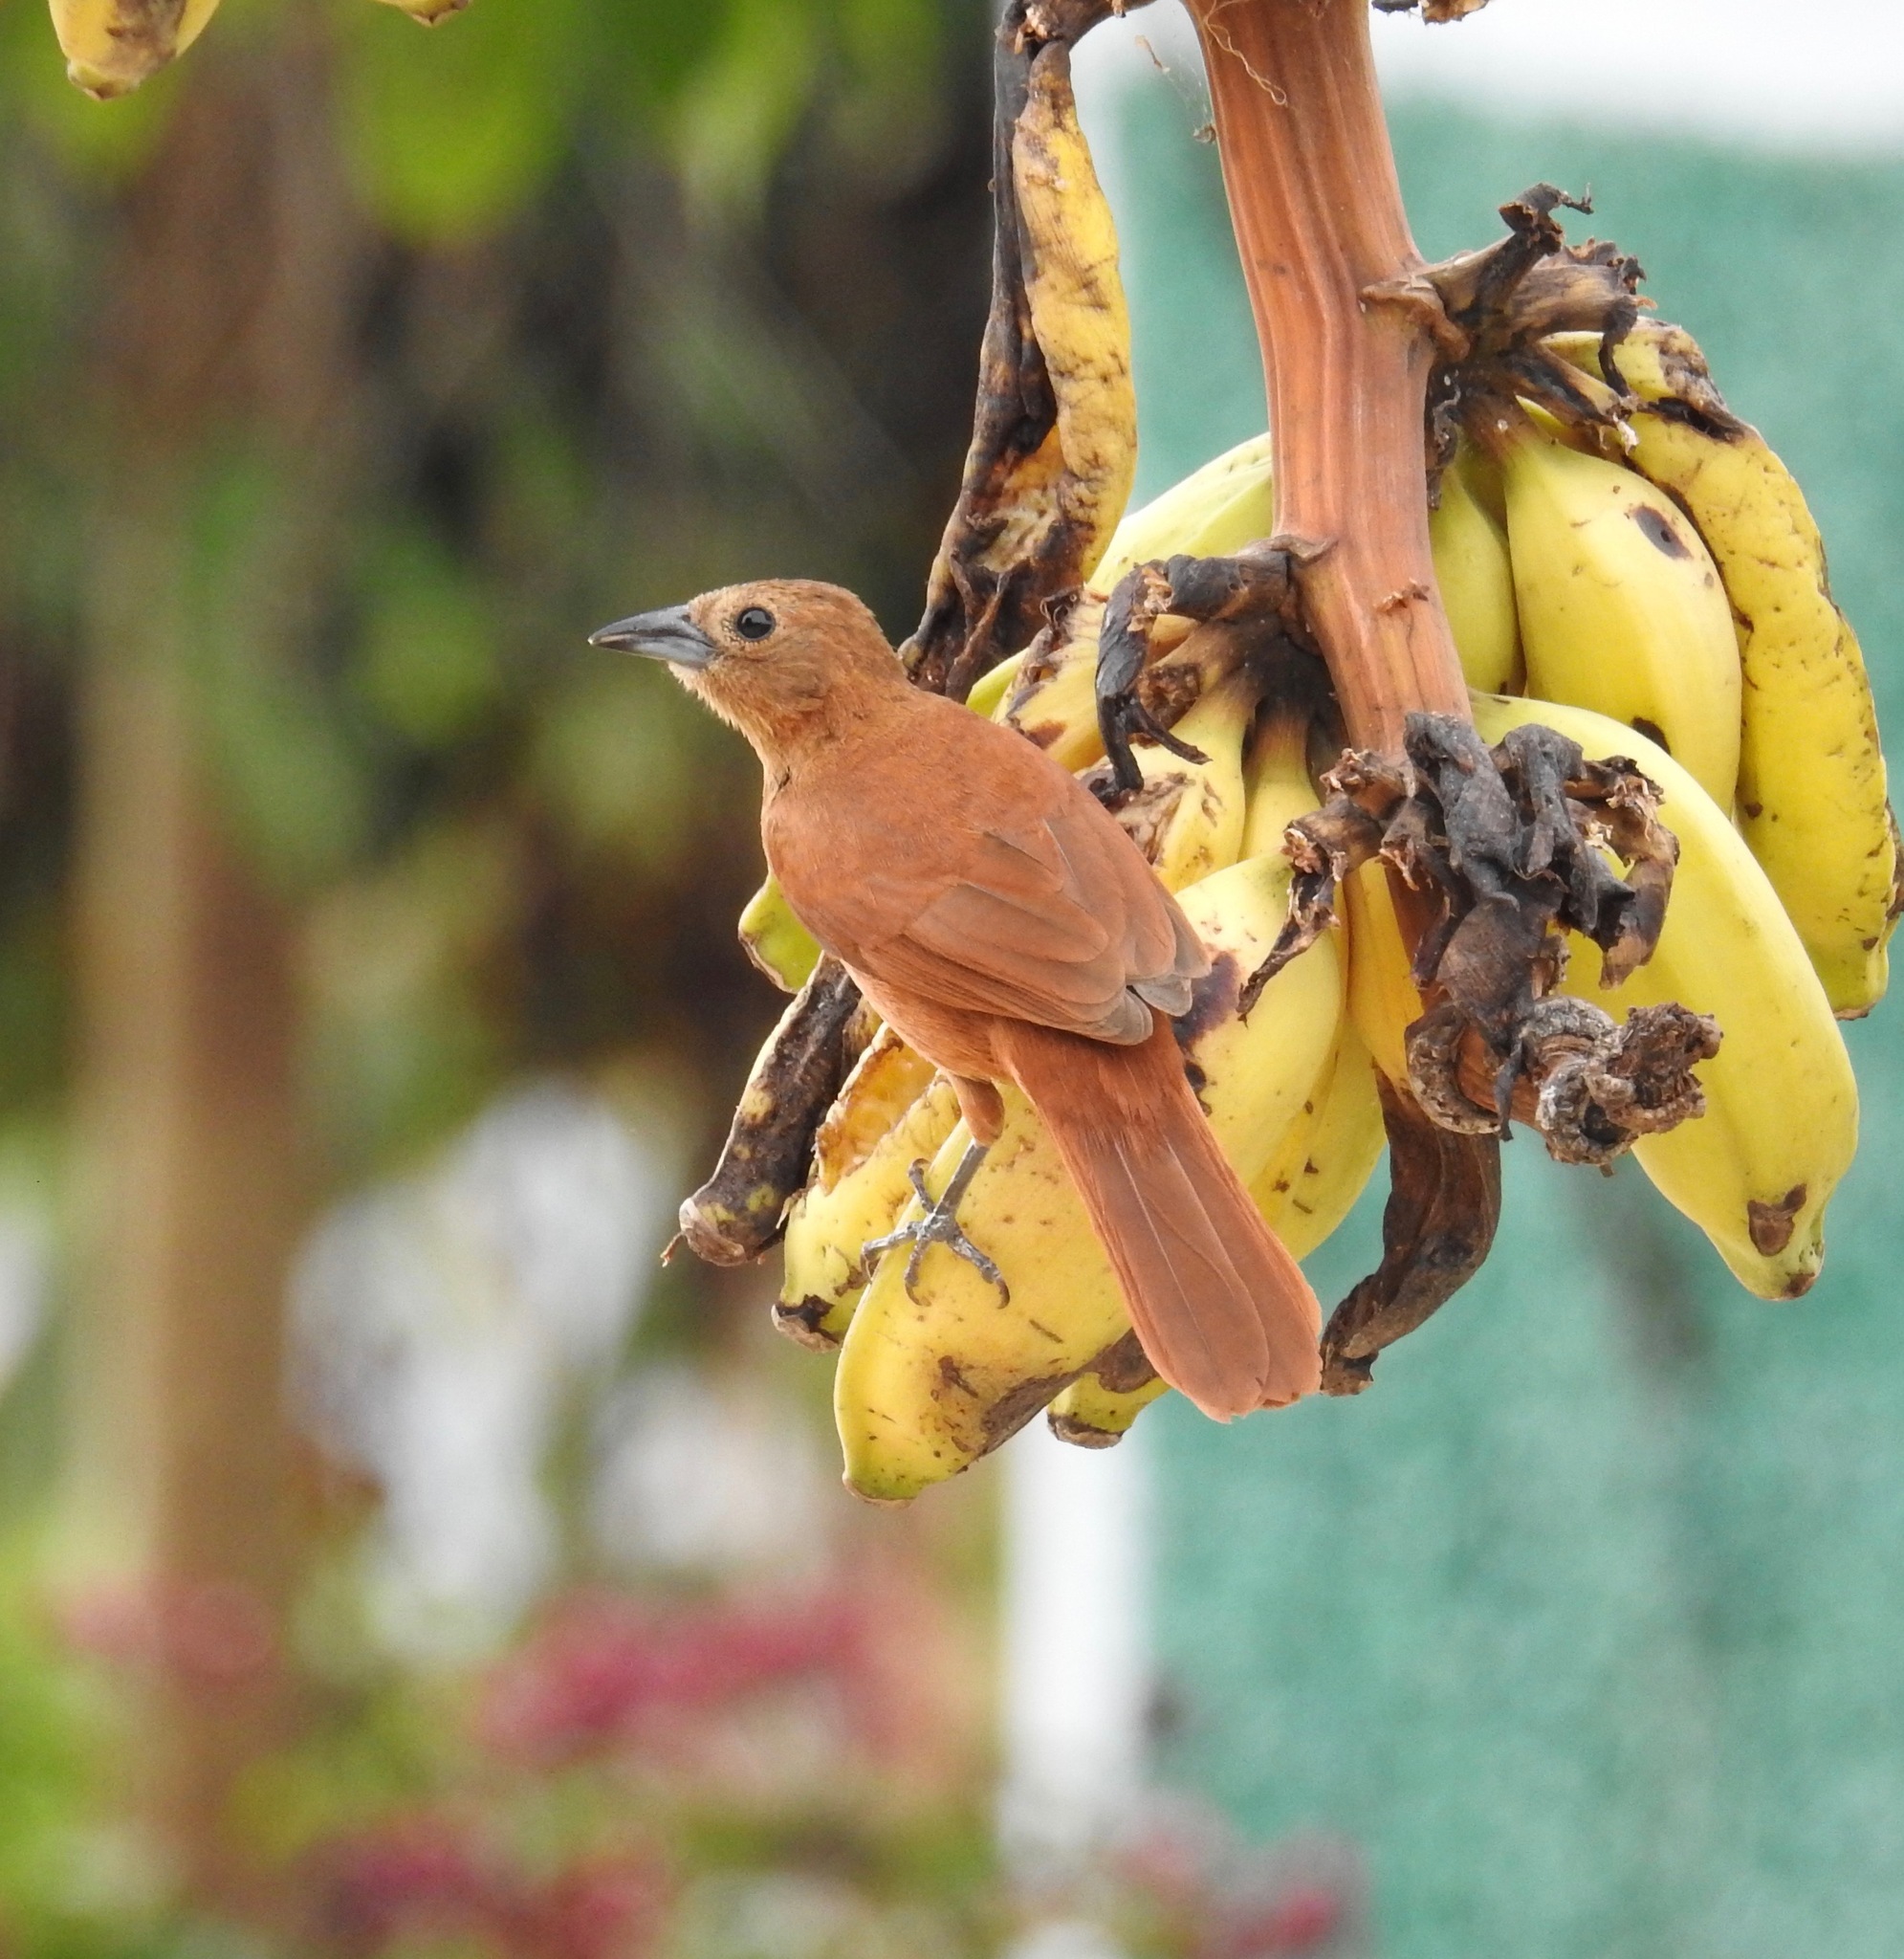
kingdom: Animalia
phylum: Chordata
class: Aves
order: Passeriformes
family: Thraupidae
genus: Tachyphonus
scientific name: Tachyphonus rufus
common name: White-lined tanager
